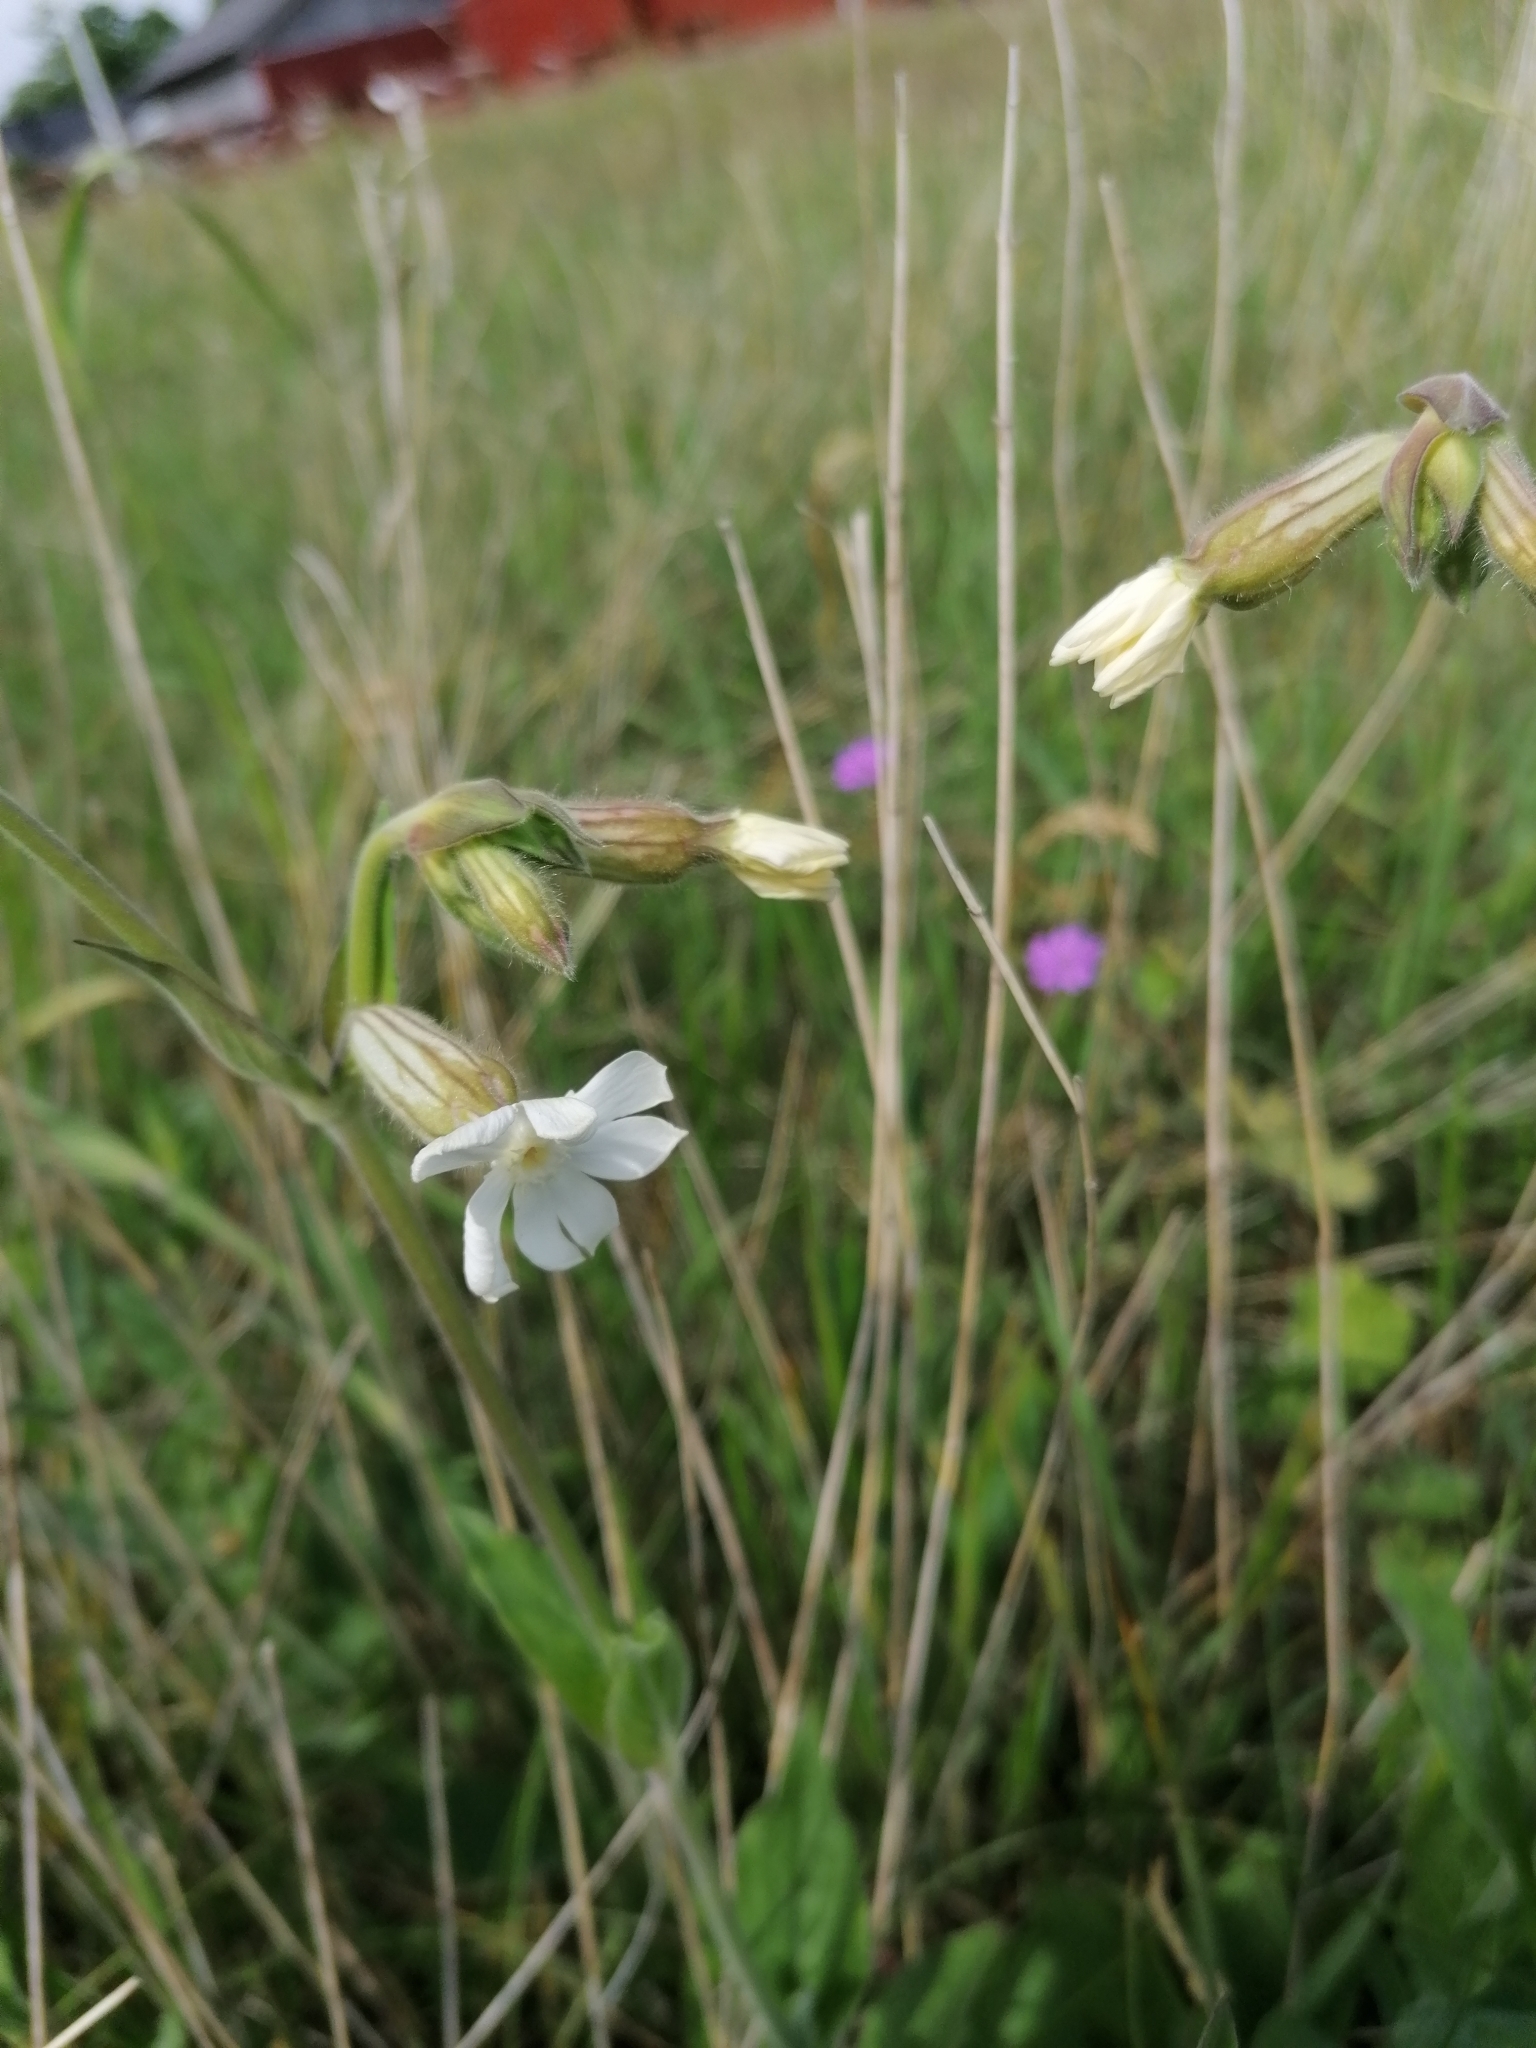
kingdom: Plantae
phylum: Tracheophyta
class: Magnoliopsida
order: Caryophyllales
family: Caryophyllaceae
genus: Silene
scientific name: Silene latifolia
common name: White campion
